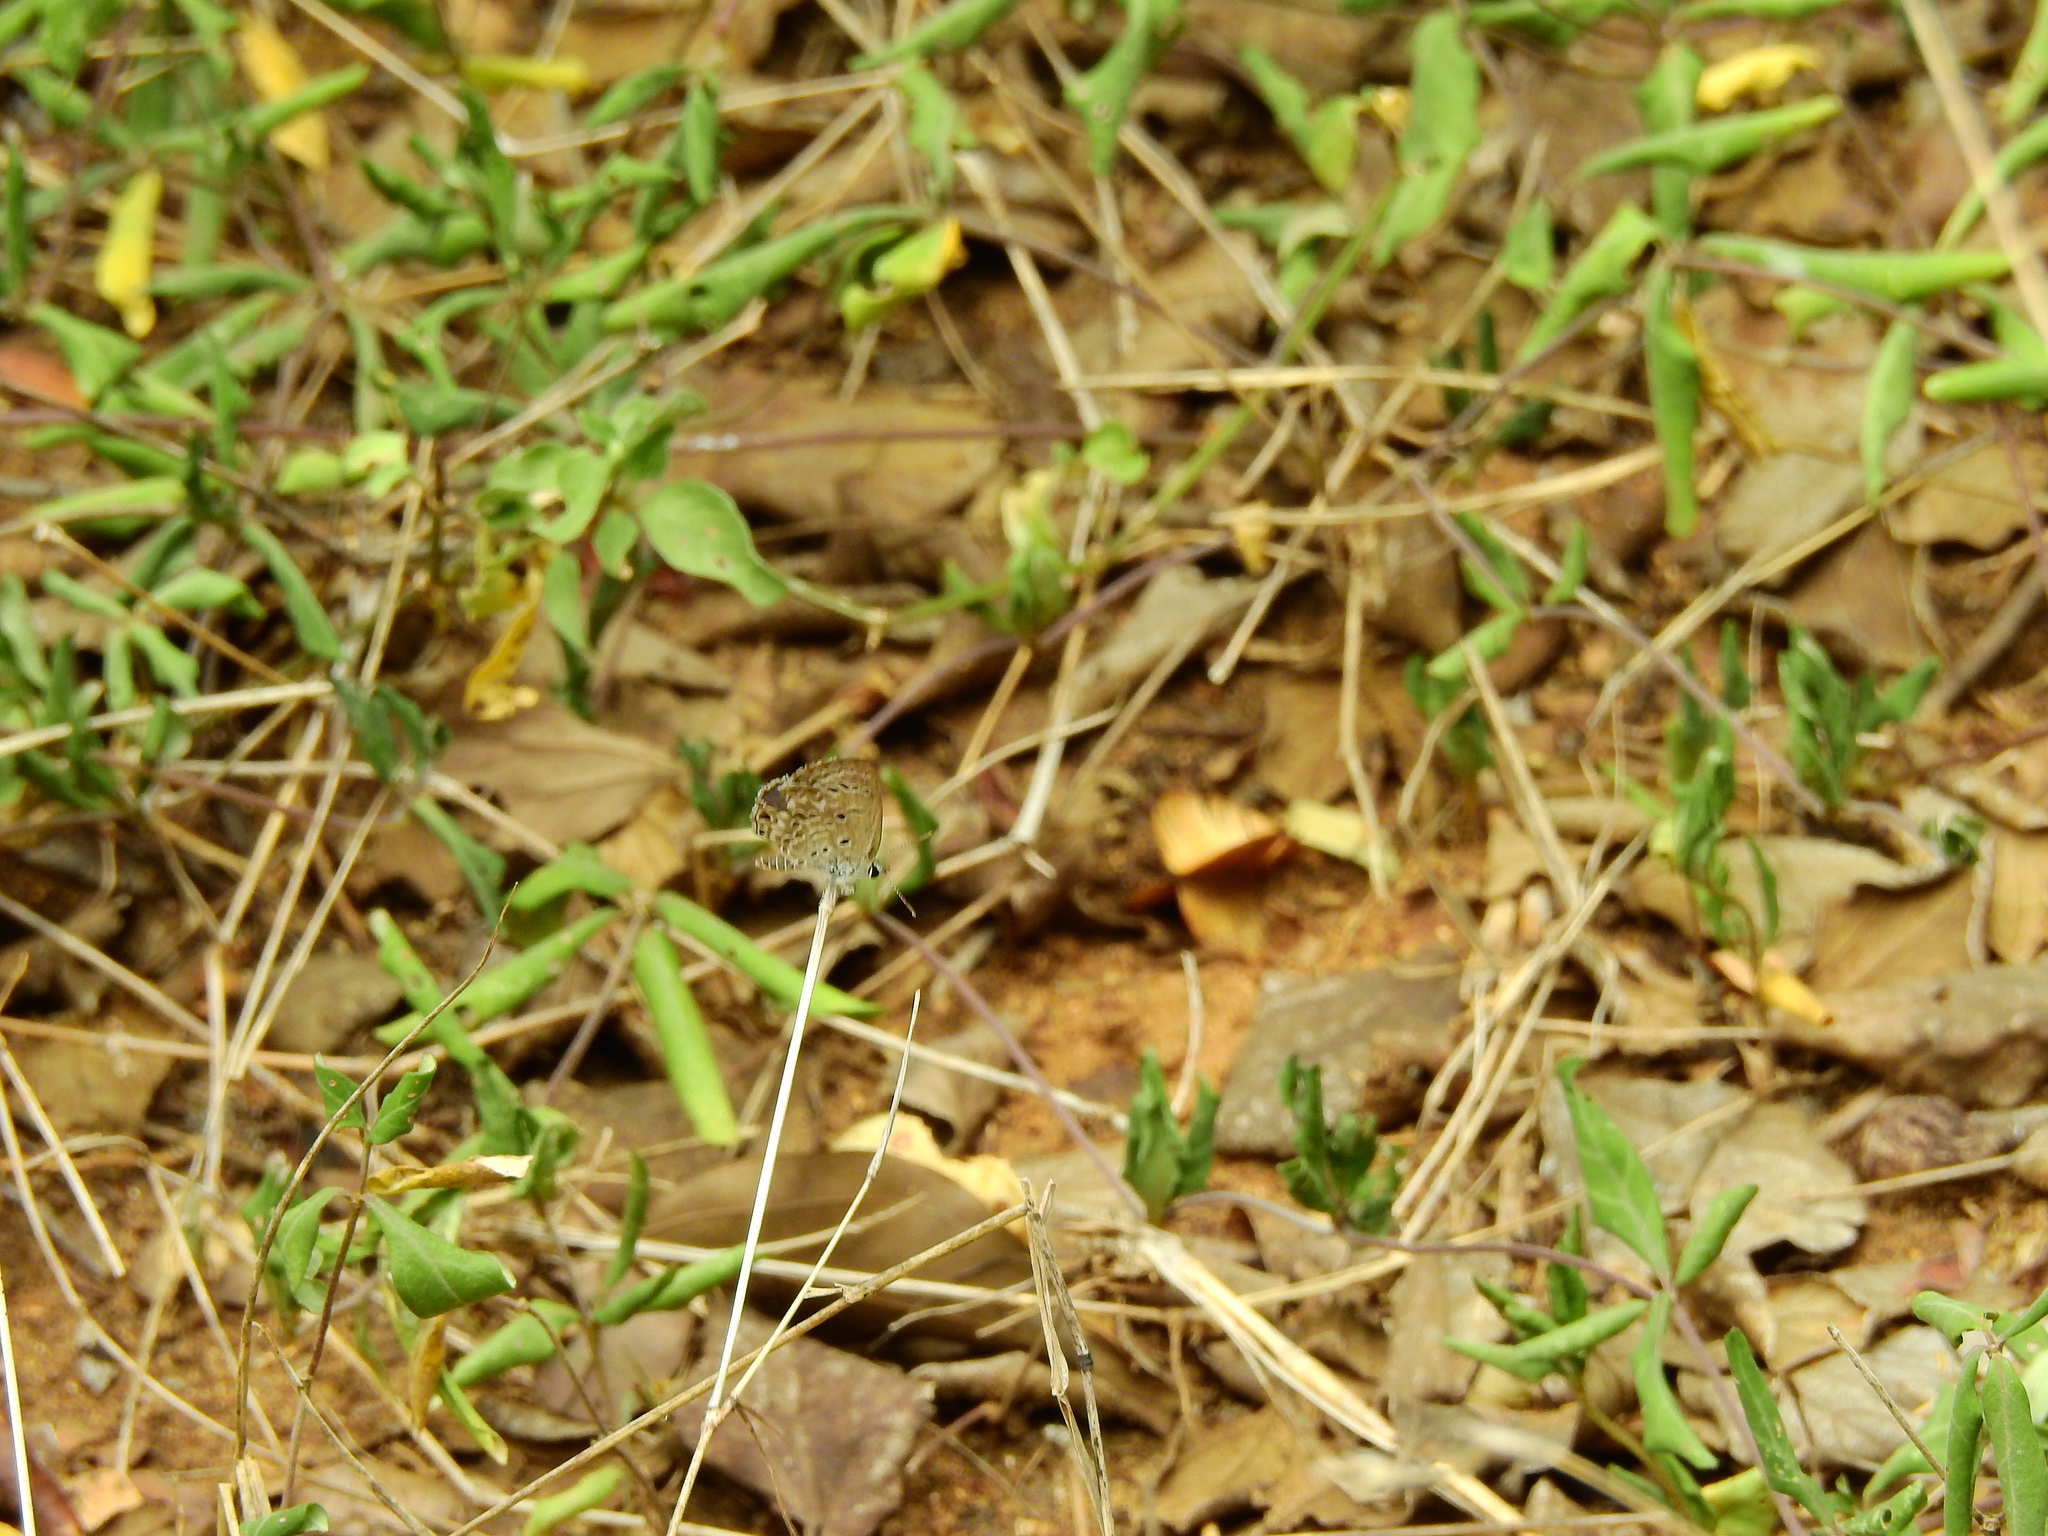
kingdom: Animalia
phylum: Arthropoda
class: Insecta
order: Lepidoptera
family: Lycaenidae
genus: Chilades
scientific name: Chilades laius
